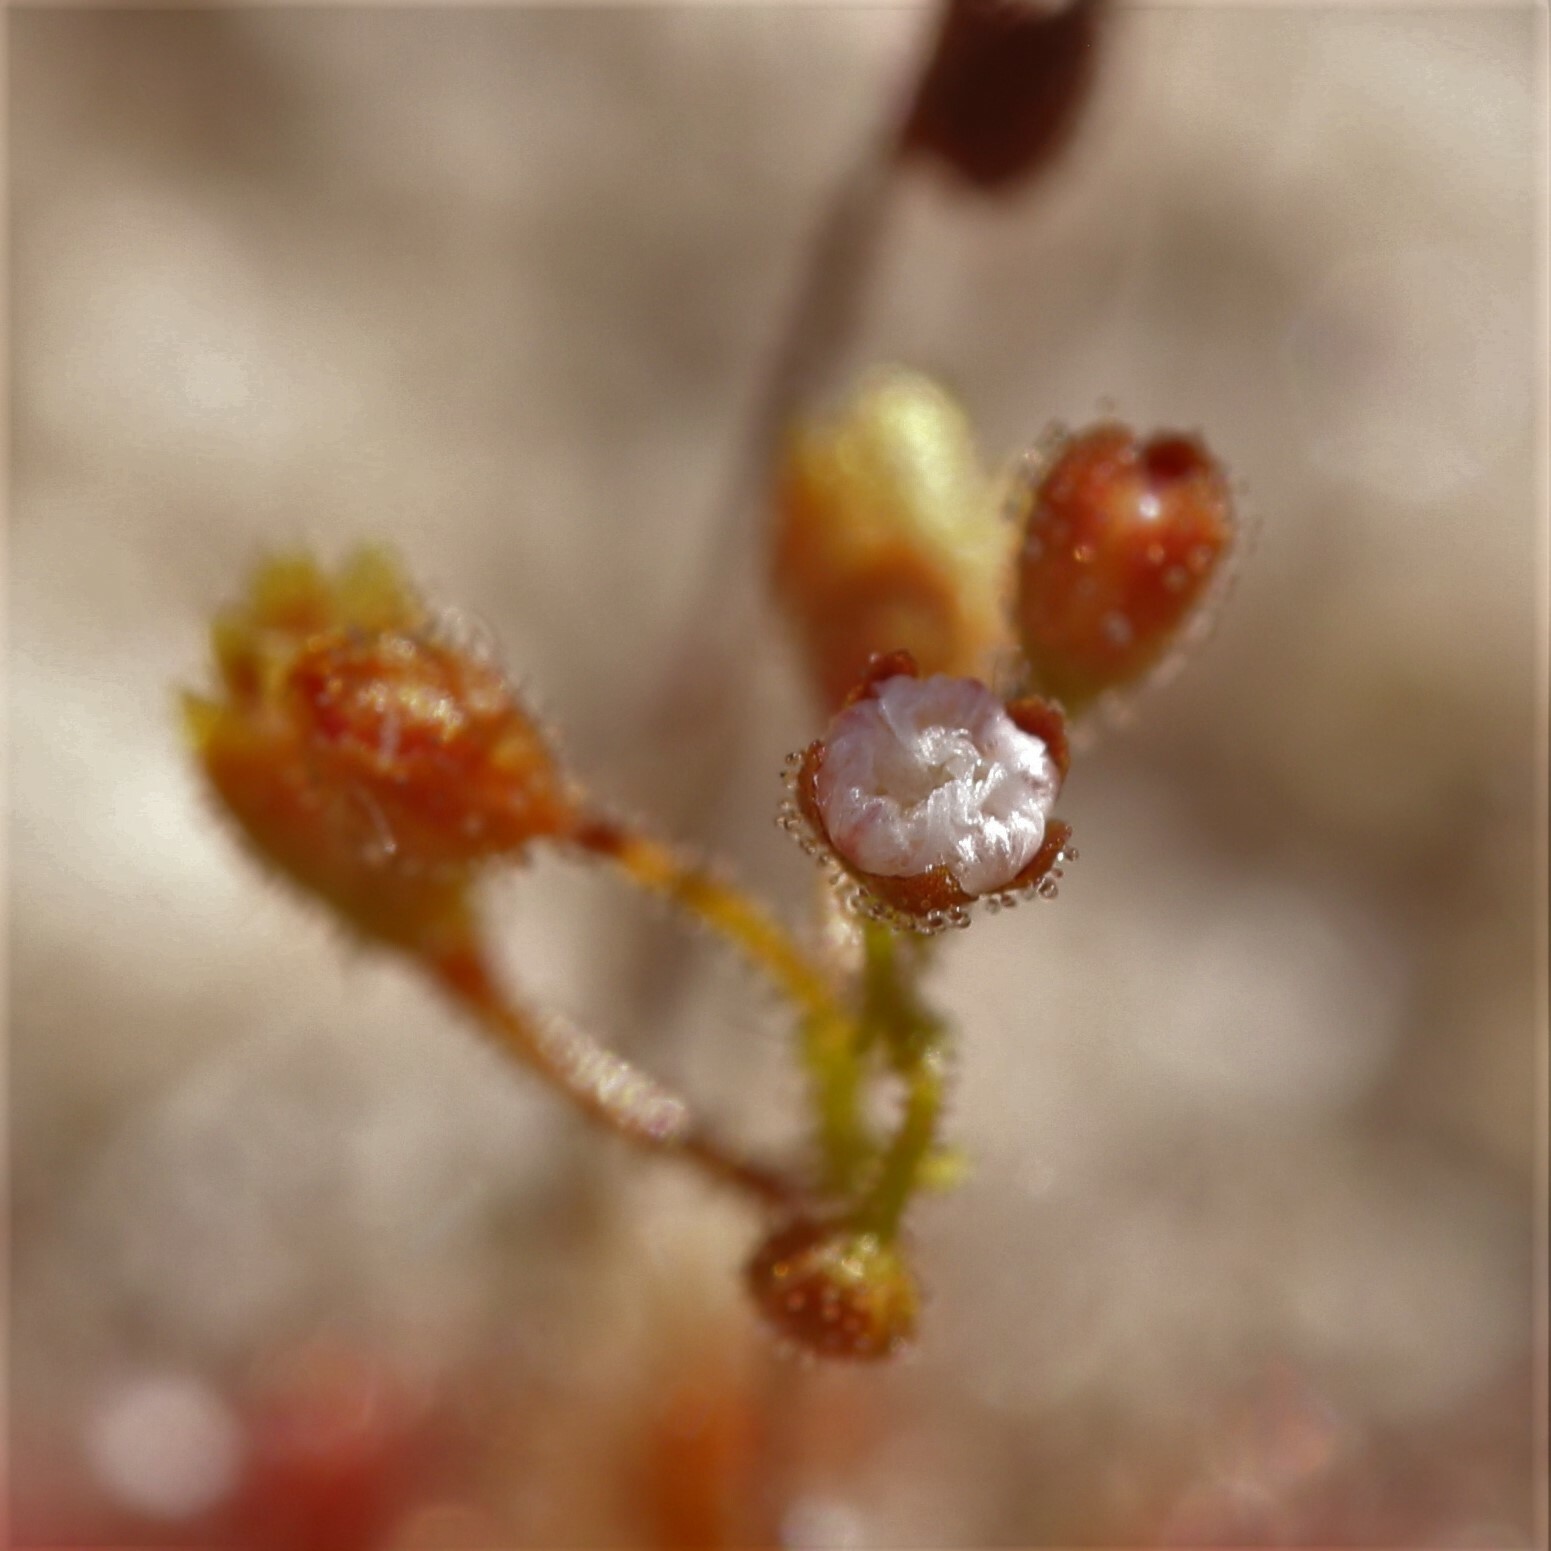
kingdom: Plantae
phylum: Tracheophyta
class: Magnoliopsida
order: Caryophyllales
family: Droseraceae
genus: Drosera
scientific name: Drosera leucostigma
